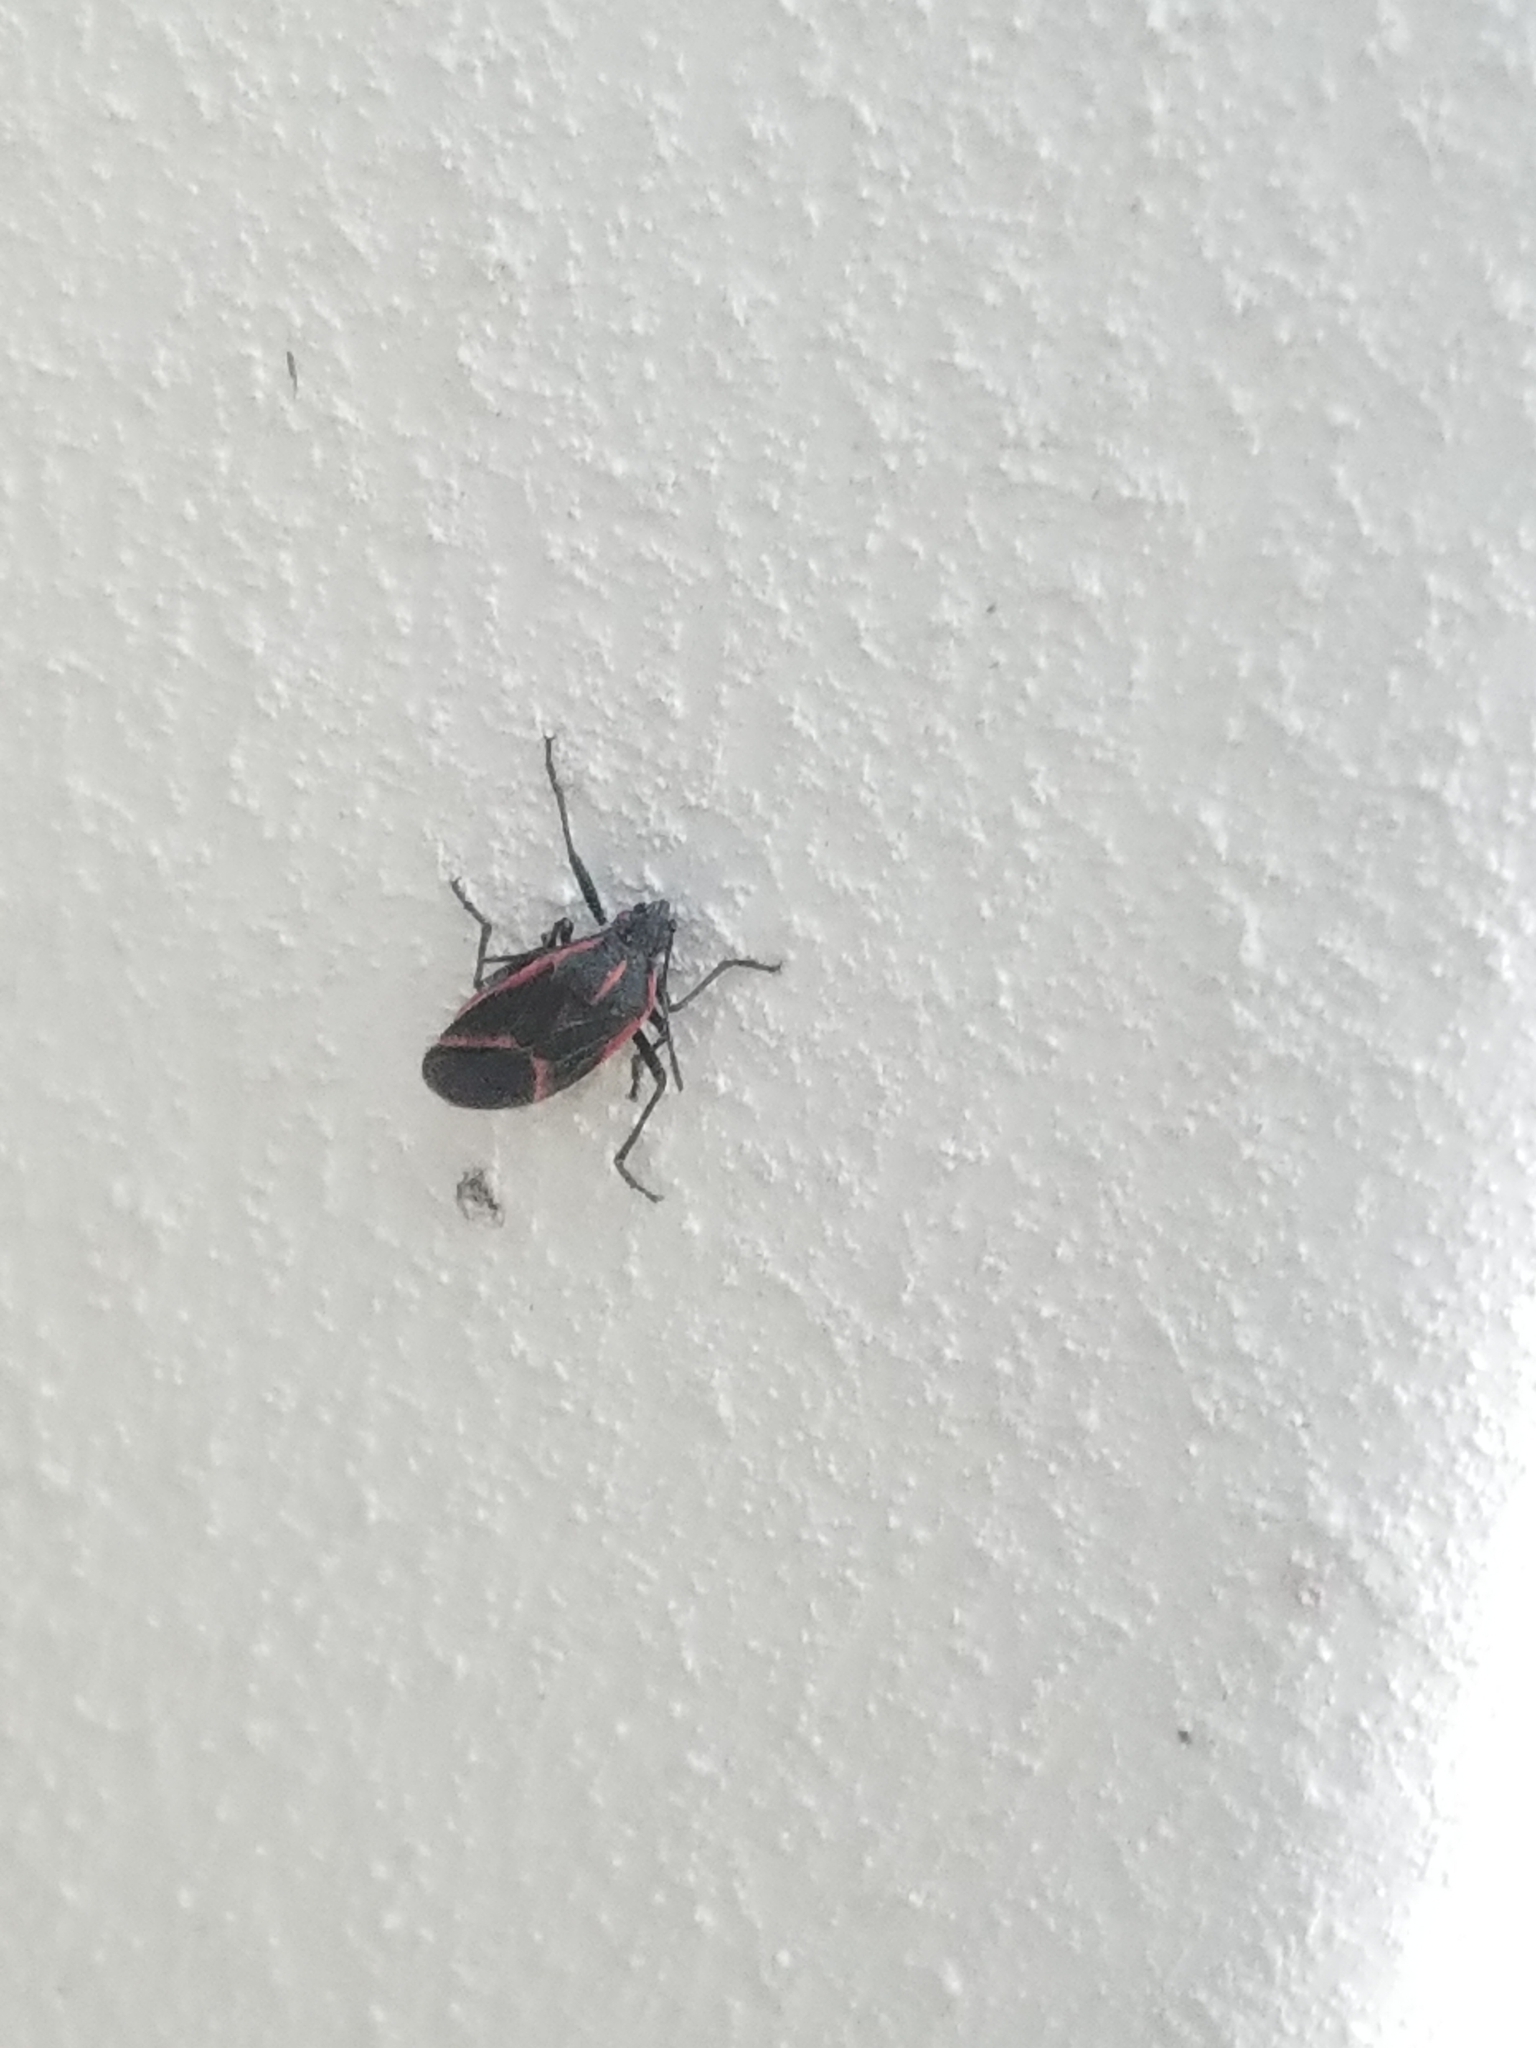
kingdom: Animalia
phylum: Arthropoda
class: Insecta
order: Hemiptera
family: Rhopalidae
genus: Boisea
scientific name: Boisea trivittata
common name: Boxelder bug
